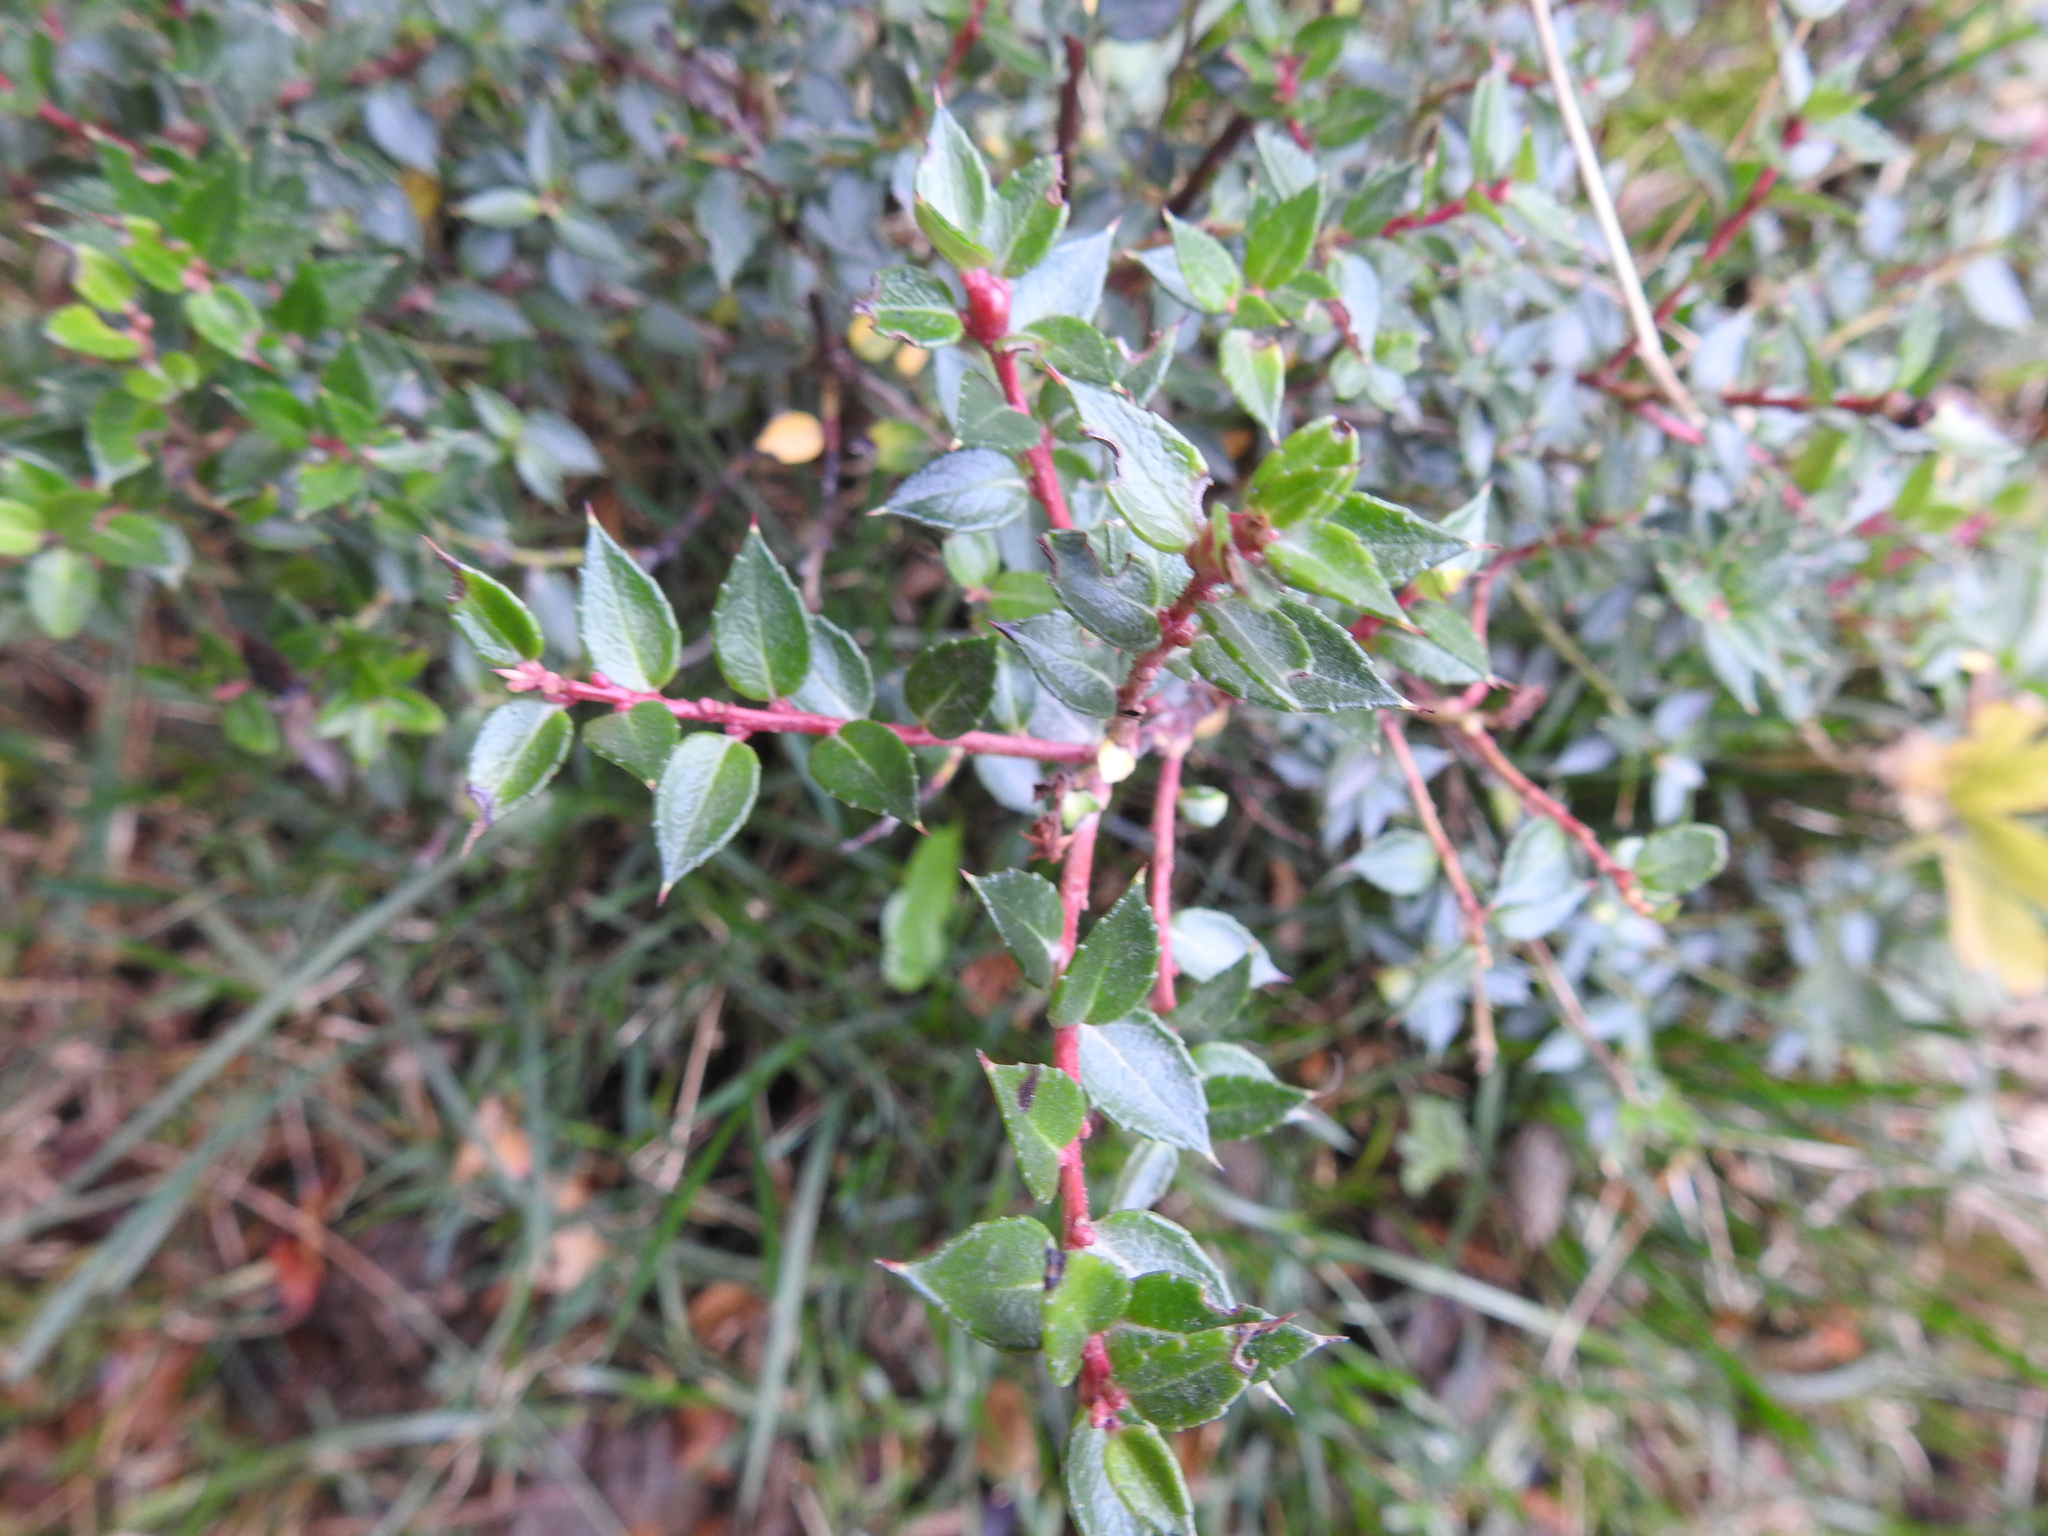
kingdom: Plantae
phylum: Tracheophyta
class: Magnoliopsida
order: Ericales
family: Ericaceae
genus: Gaultheria
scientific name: Gaultheria mucronata
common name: Prickly heath
